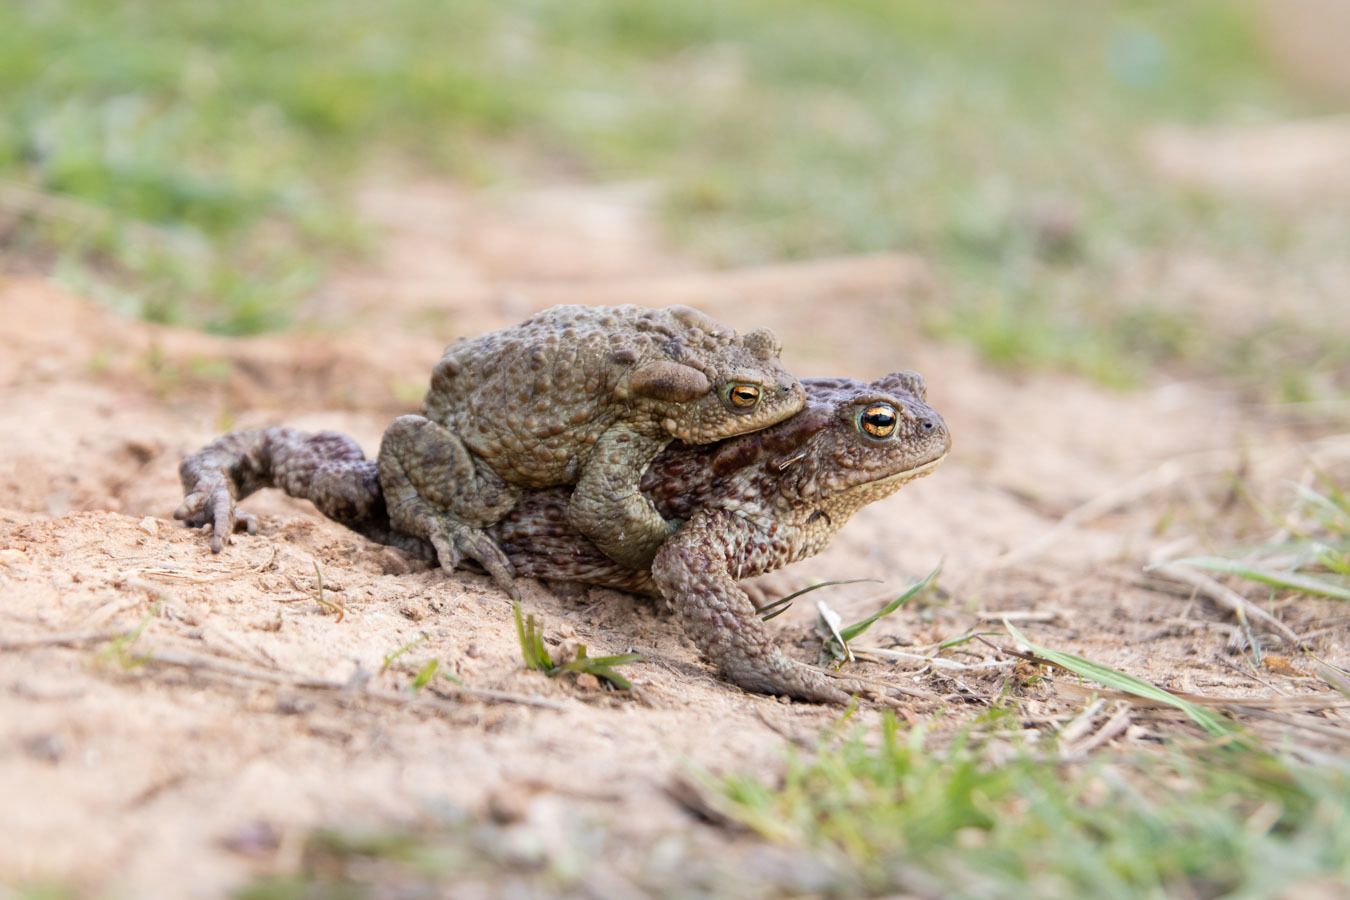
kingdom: Animalia
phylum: Chordata
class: Amphibia
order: Anura
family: Bufonidae
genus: Bufo
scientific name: Bufo bufo
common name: Common toad
